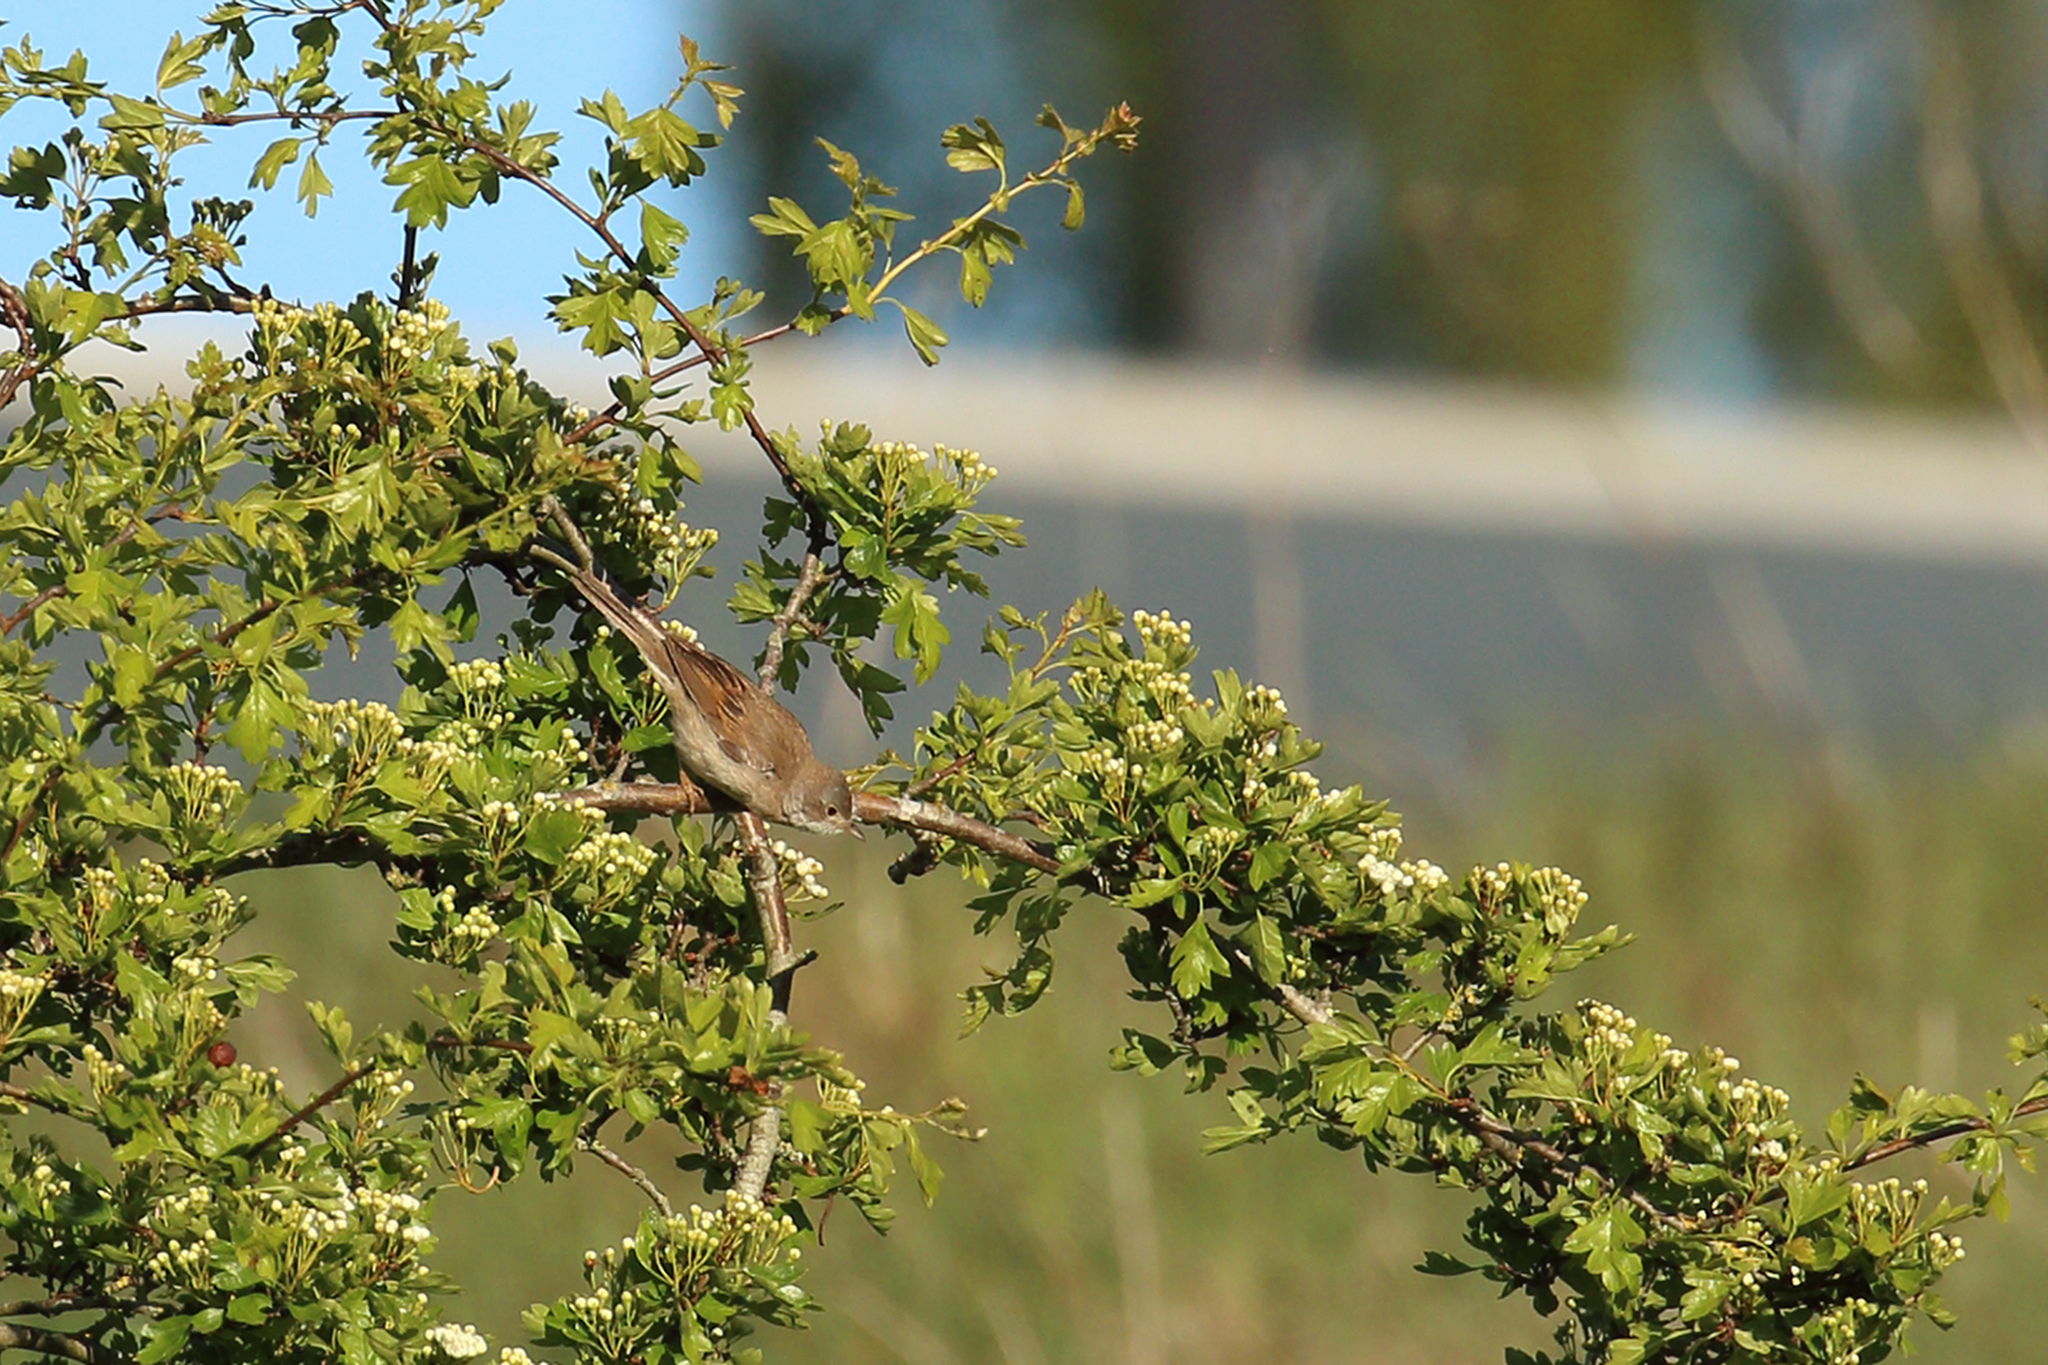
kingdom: Animalia
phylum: Chordata
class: Aves
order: Passeriformes
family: Sylviidae
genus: Sylvia
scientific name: Sylvia communis
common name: Common whitethroat
